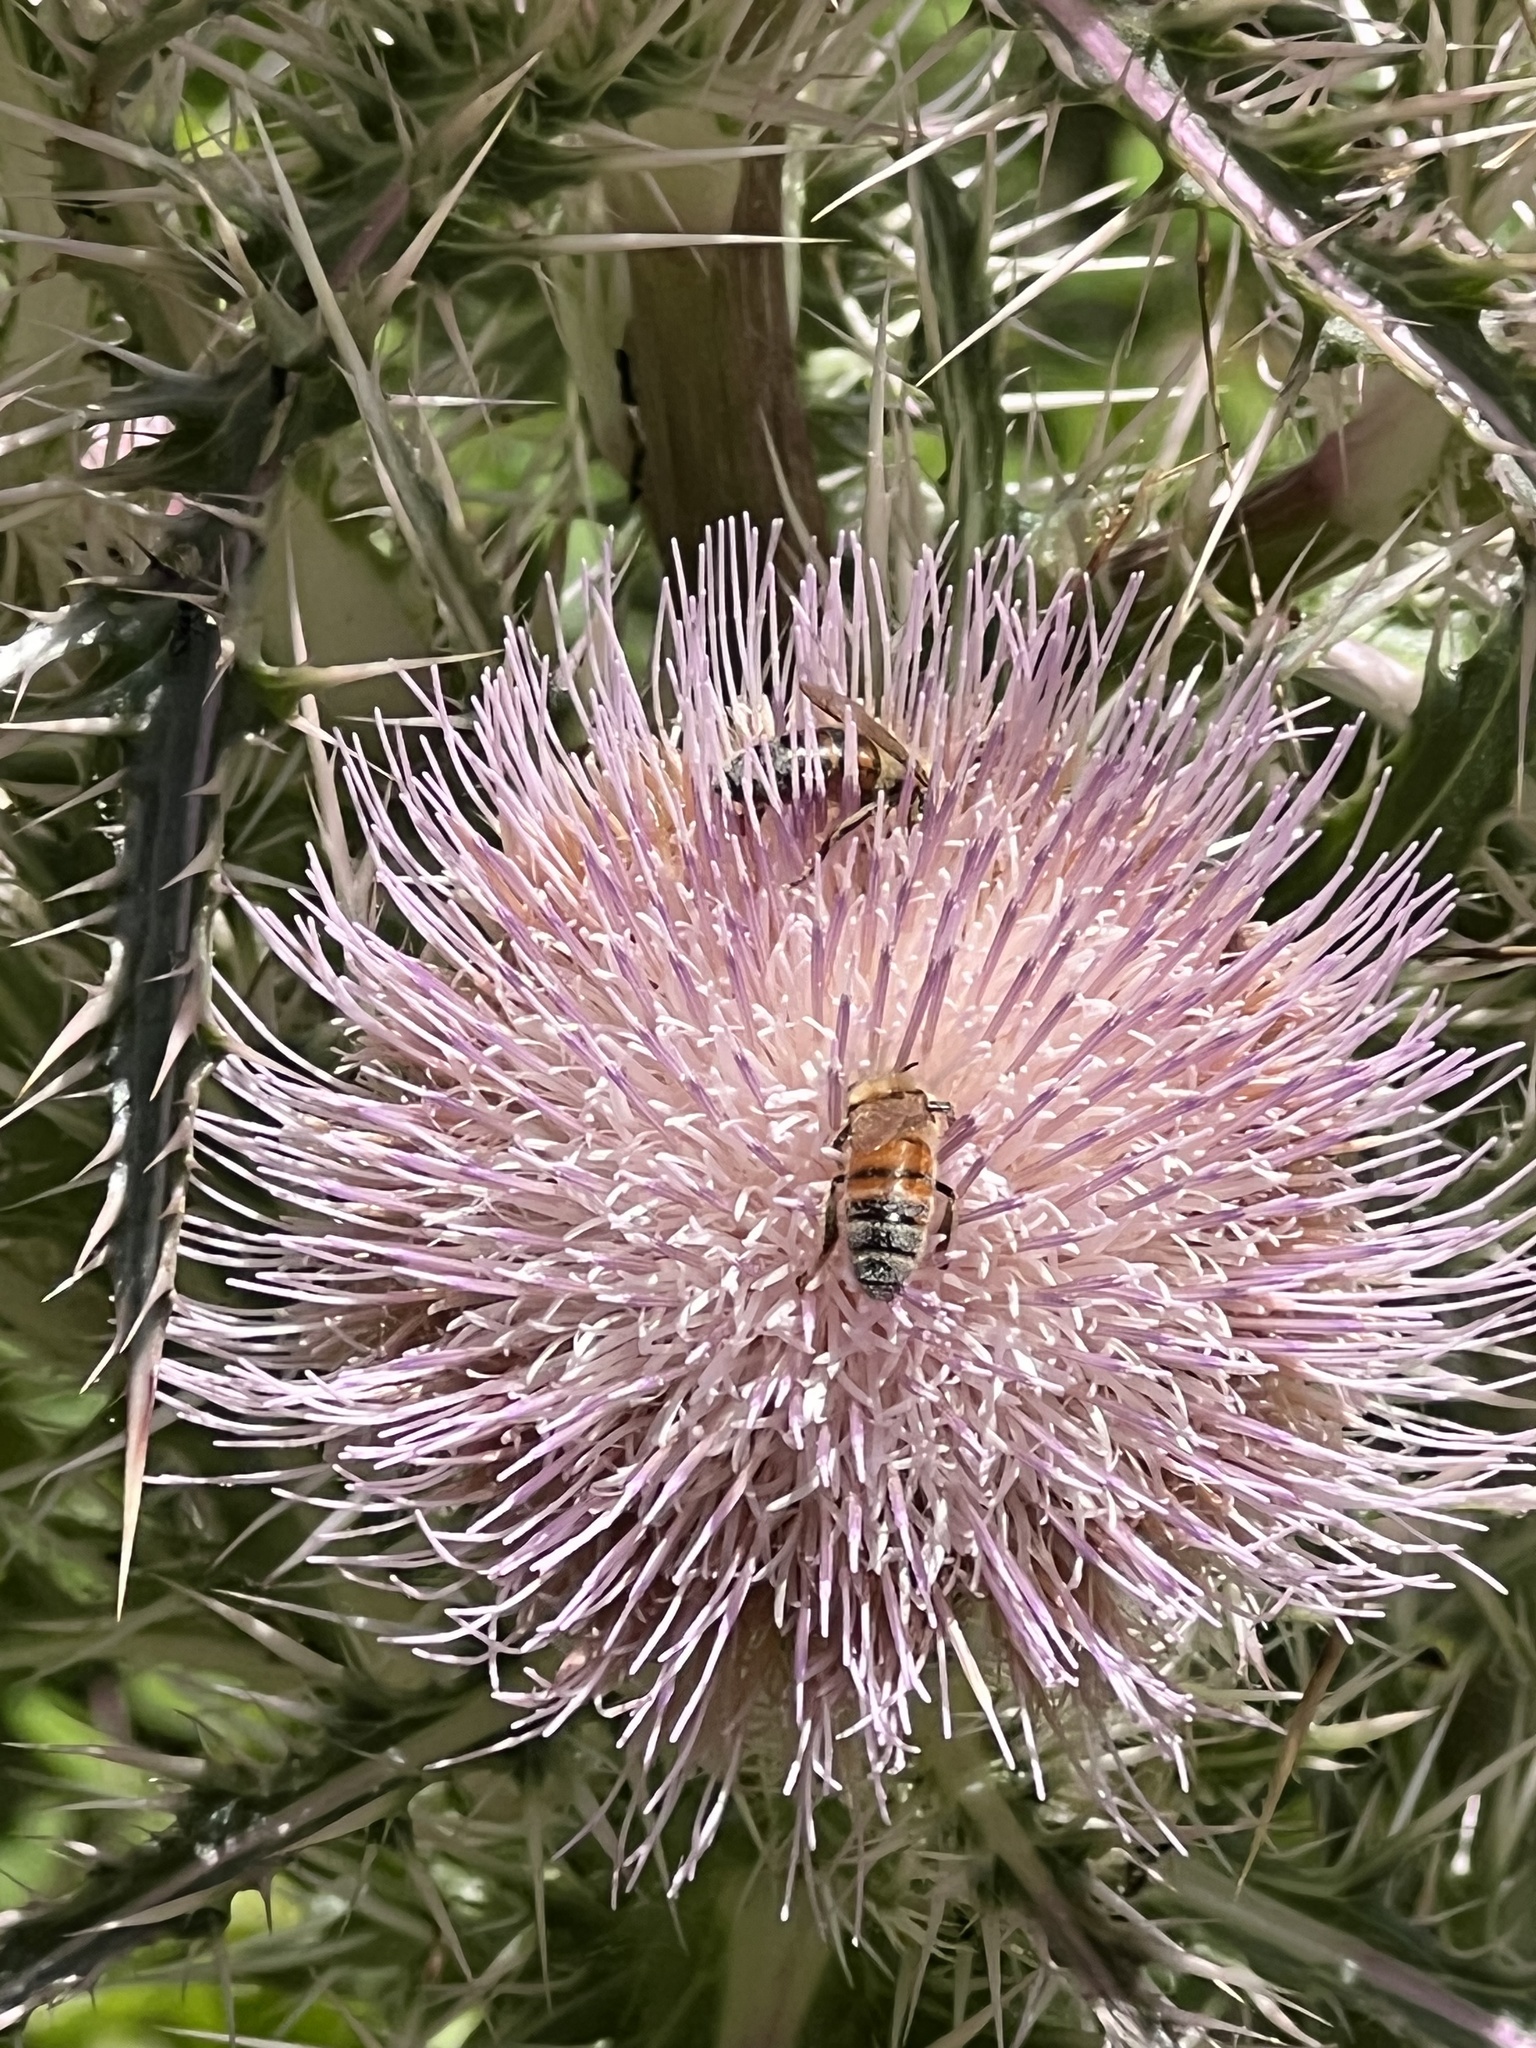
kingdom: Plantae
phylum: Tracheophyta
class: Magnoliopsida
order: Asterales
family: Asteraceae
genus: Cirsium
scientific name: Cirsium horridulum
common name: Bristly thistle
